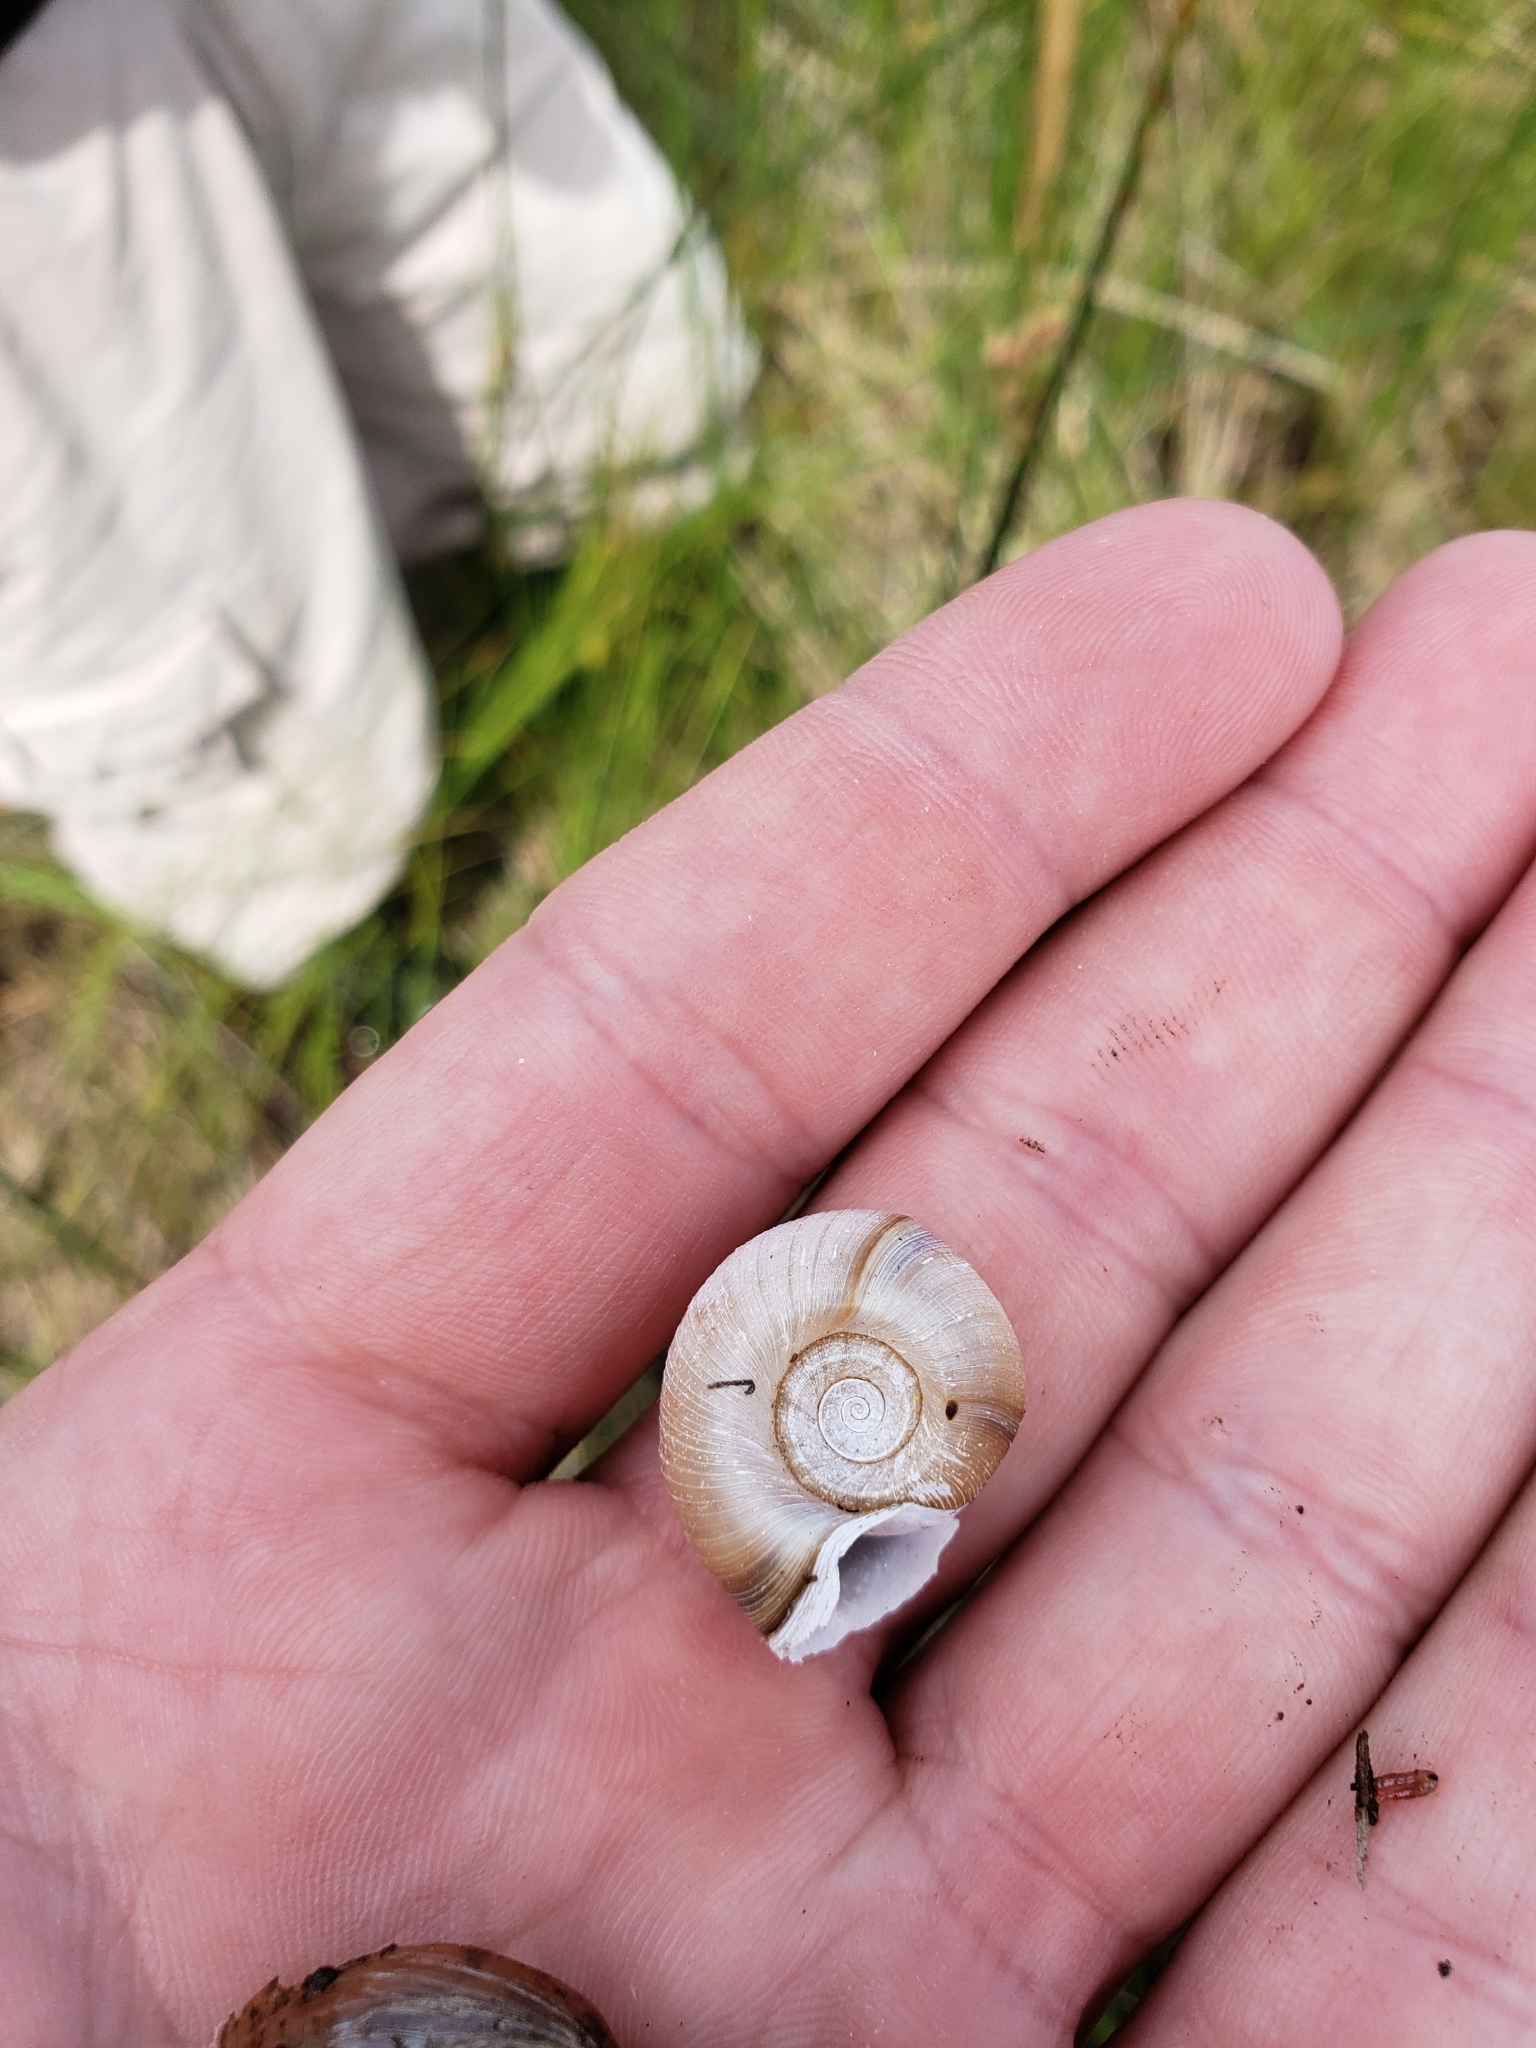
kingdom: Animalia
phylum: Mollusca
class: Gastropoda
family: Planorbidae
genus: Planorbella
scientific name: Planorbella trivolvis
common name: Marsh rams-horn
